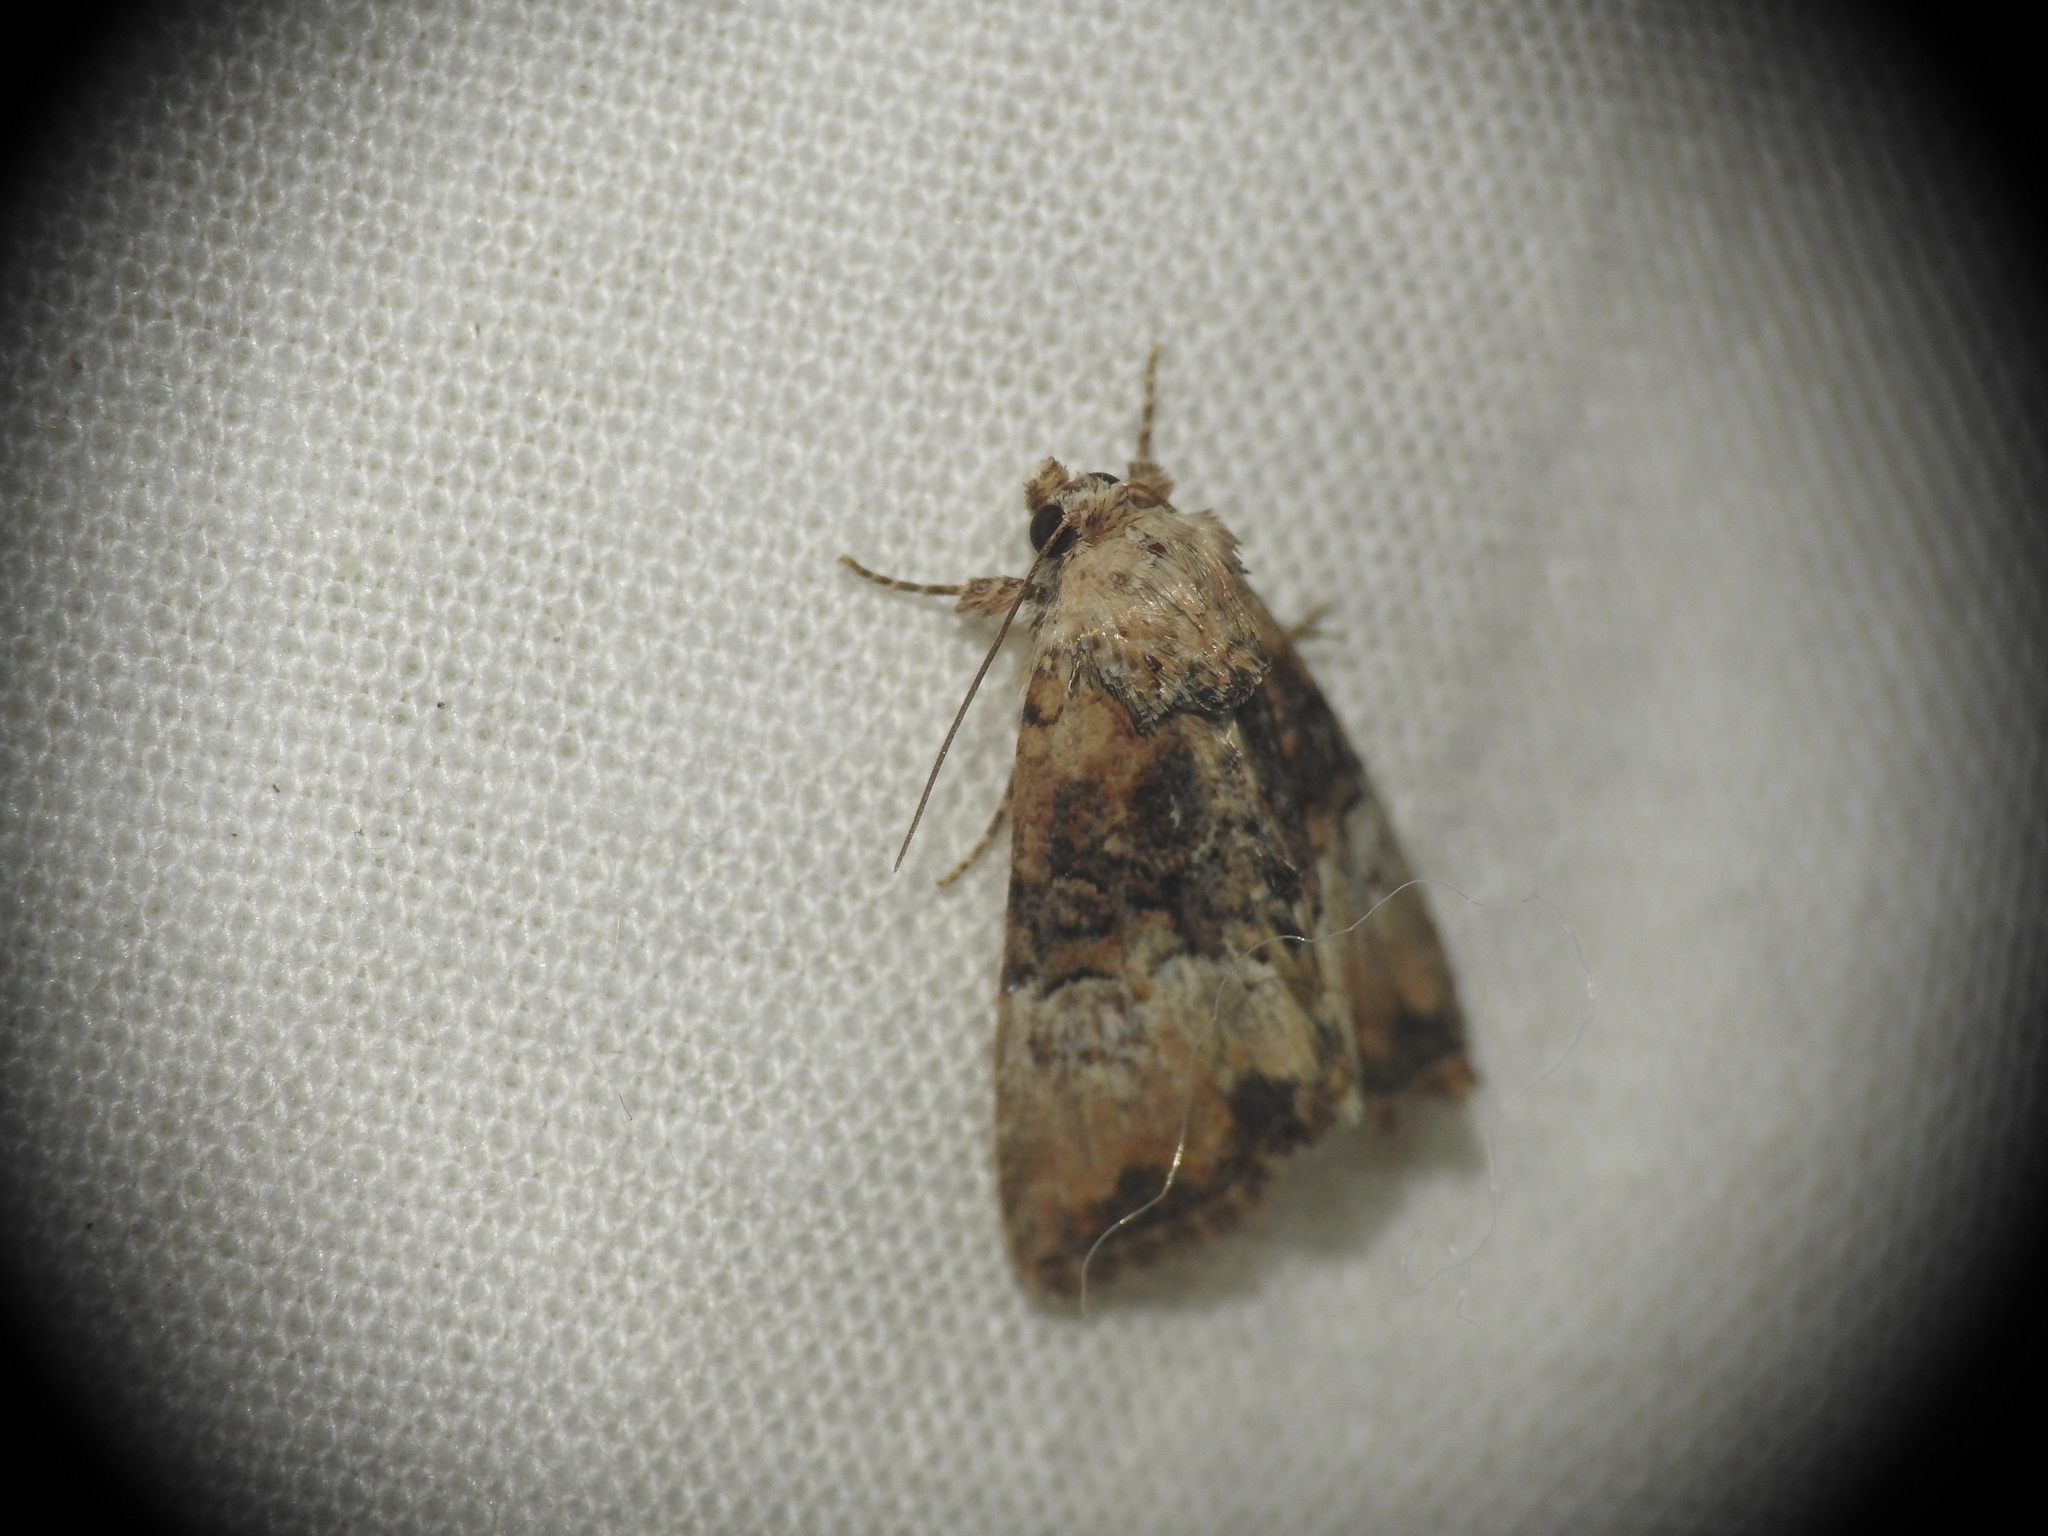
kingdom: Animalia
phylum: Arthropoda
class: Insecta
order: Lepidoptera
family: Noctuidae
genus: Mesoligia
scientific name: Mesoligia furuncula
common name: Cloaked minor
